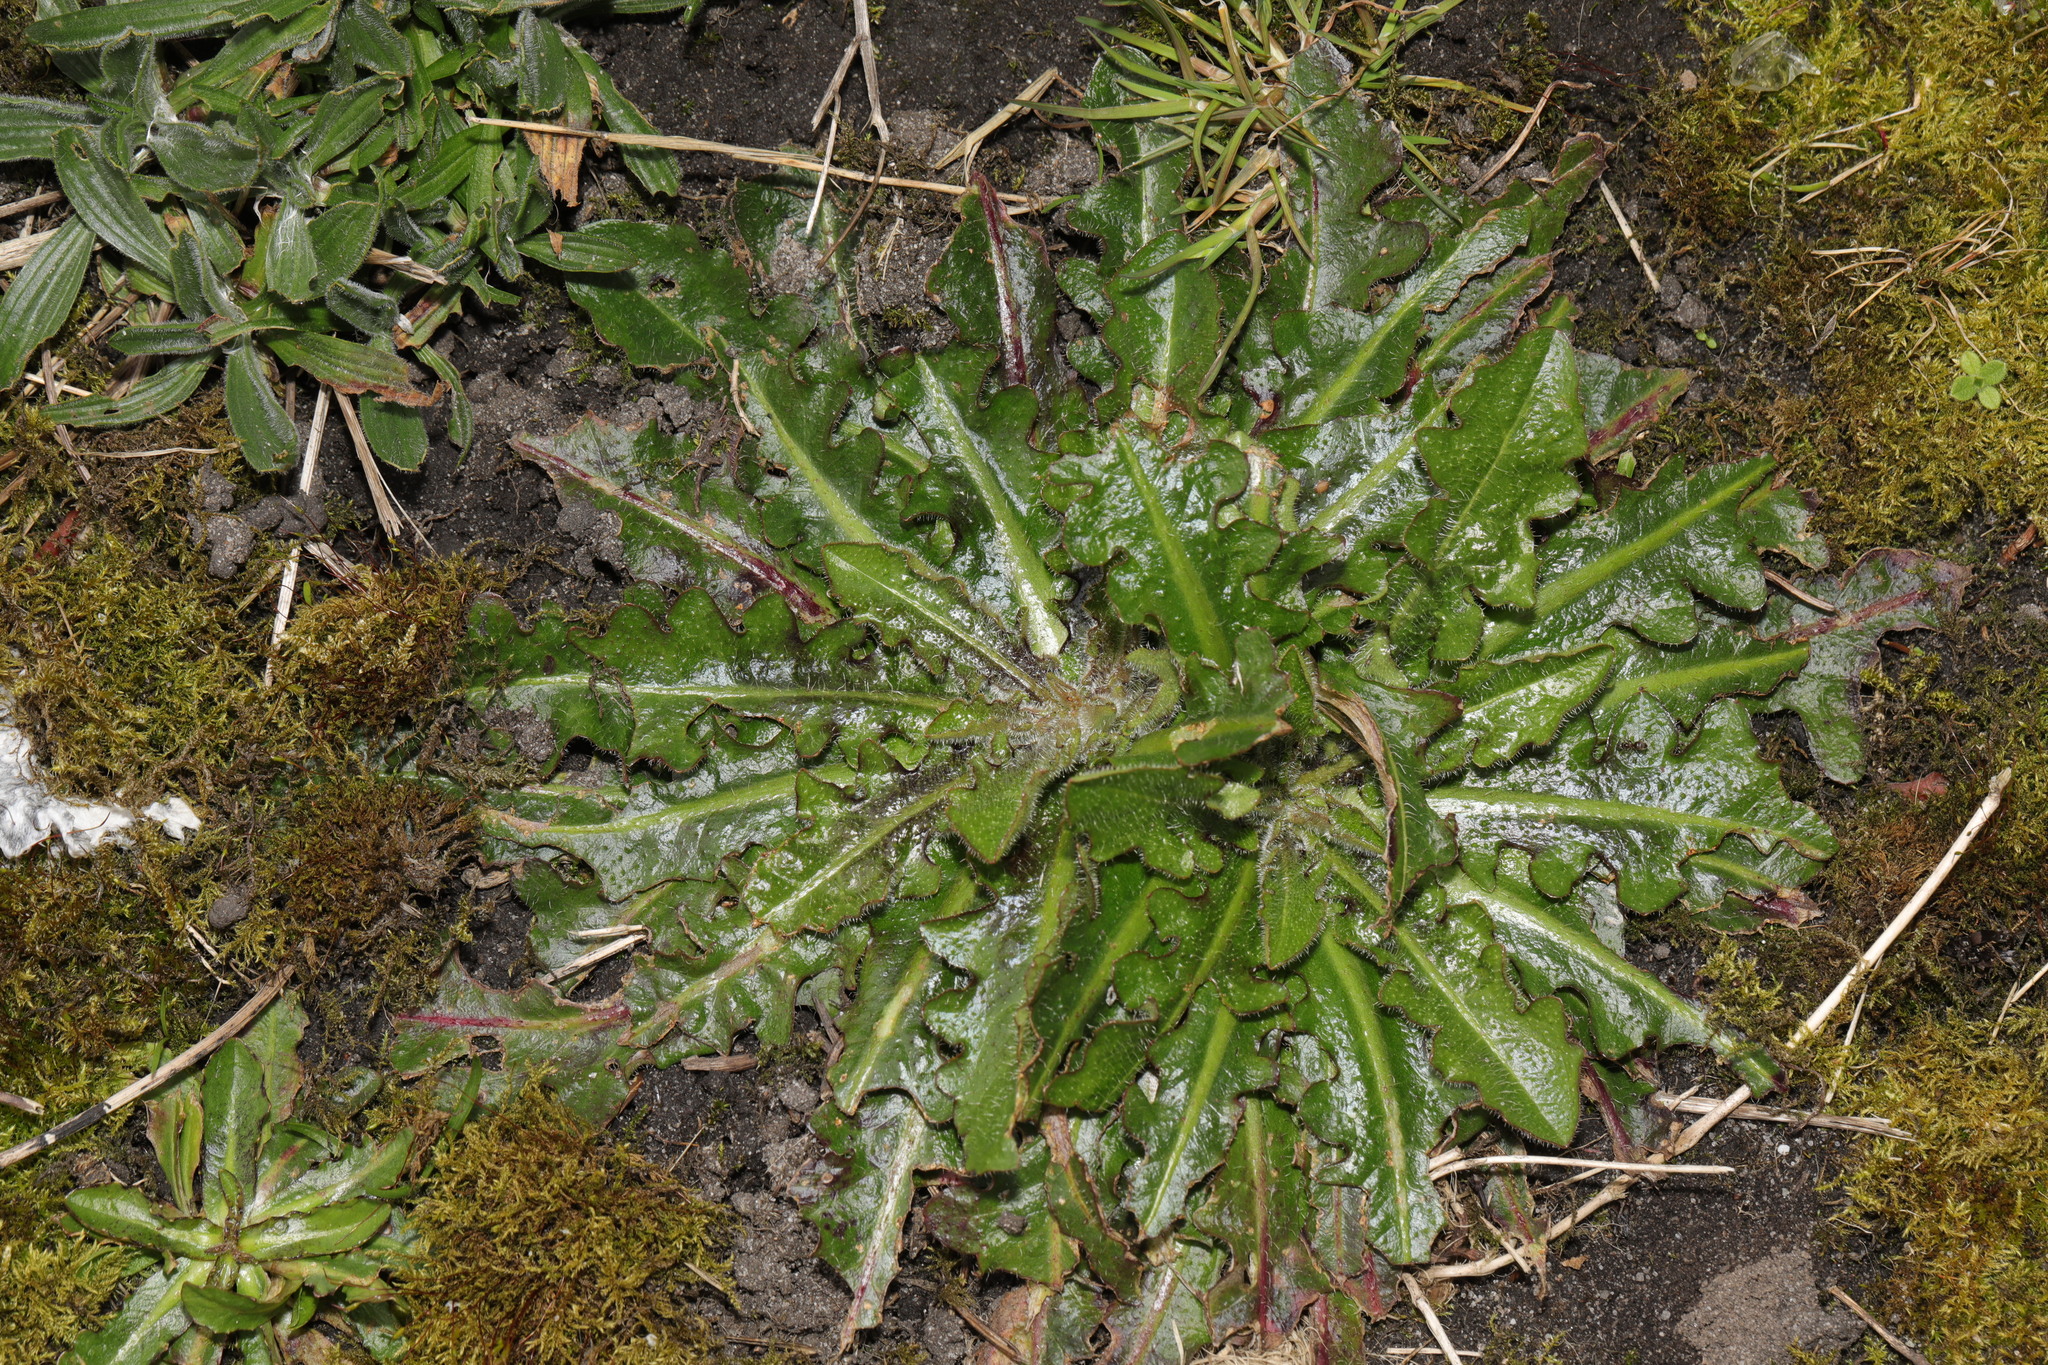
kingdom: Plantae
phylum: Tracheophyta
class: Magnoliopsida
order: Asterales
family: Asteraceae
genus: Hypochaeris
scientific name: Hypochaeris radicata
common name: Flatweed
